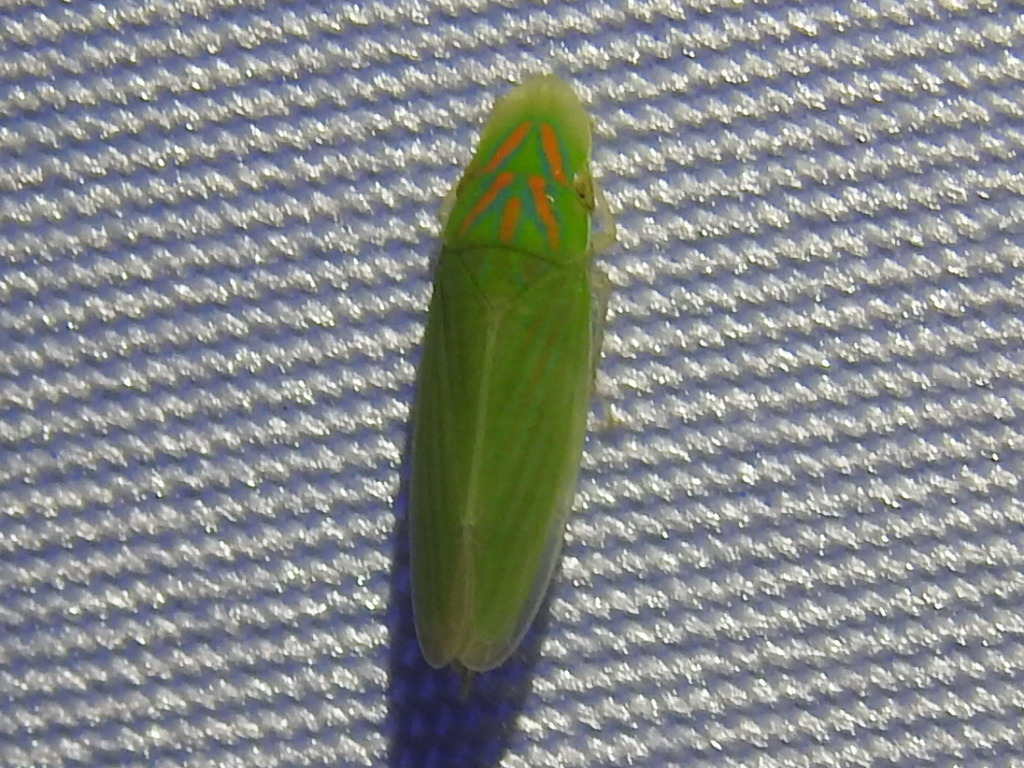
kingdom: Animalia
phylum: Arthropoda
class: Insecta
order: Hemiptera
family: Cicadellidae
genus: Spangbergiella
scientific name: Spangbergiella vulnerata
